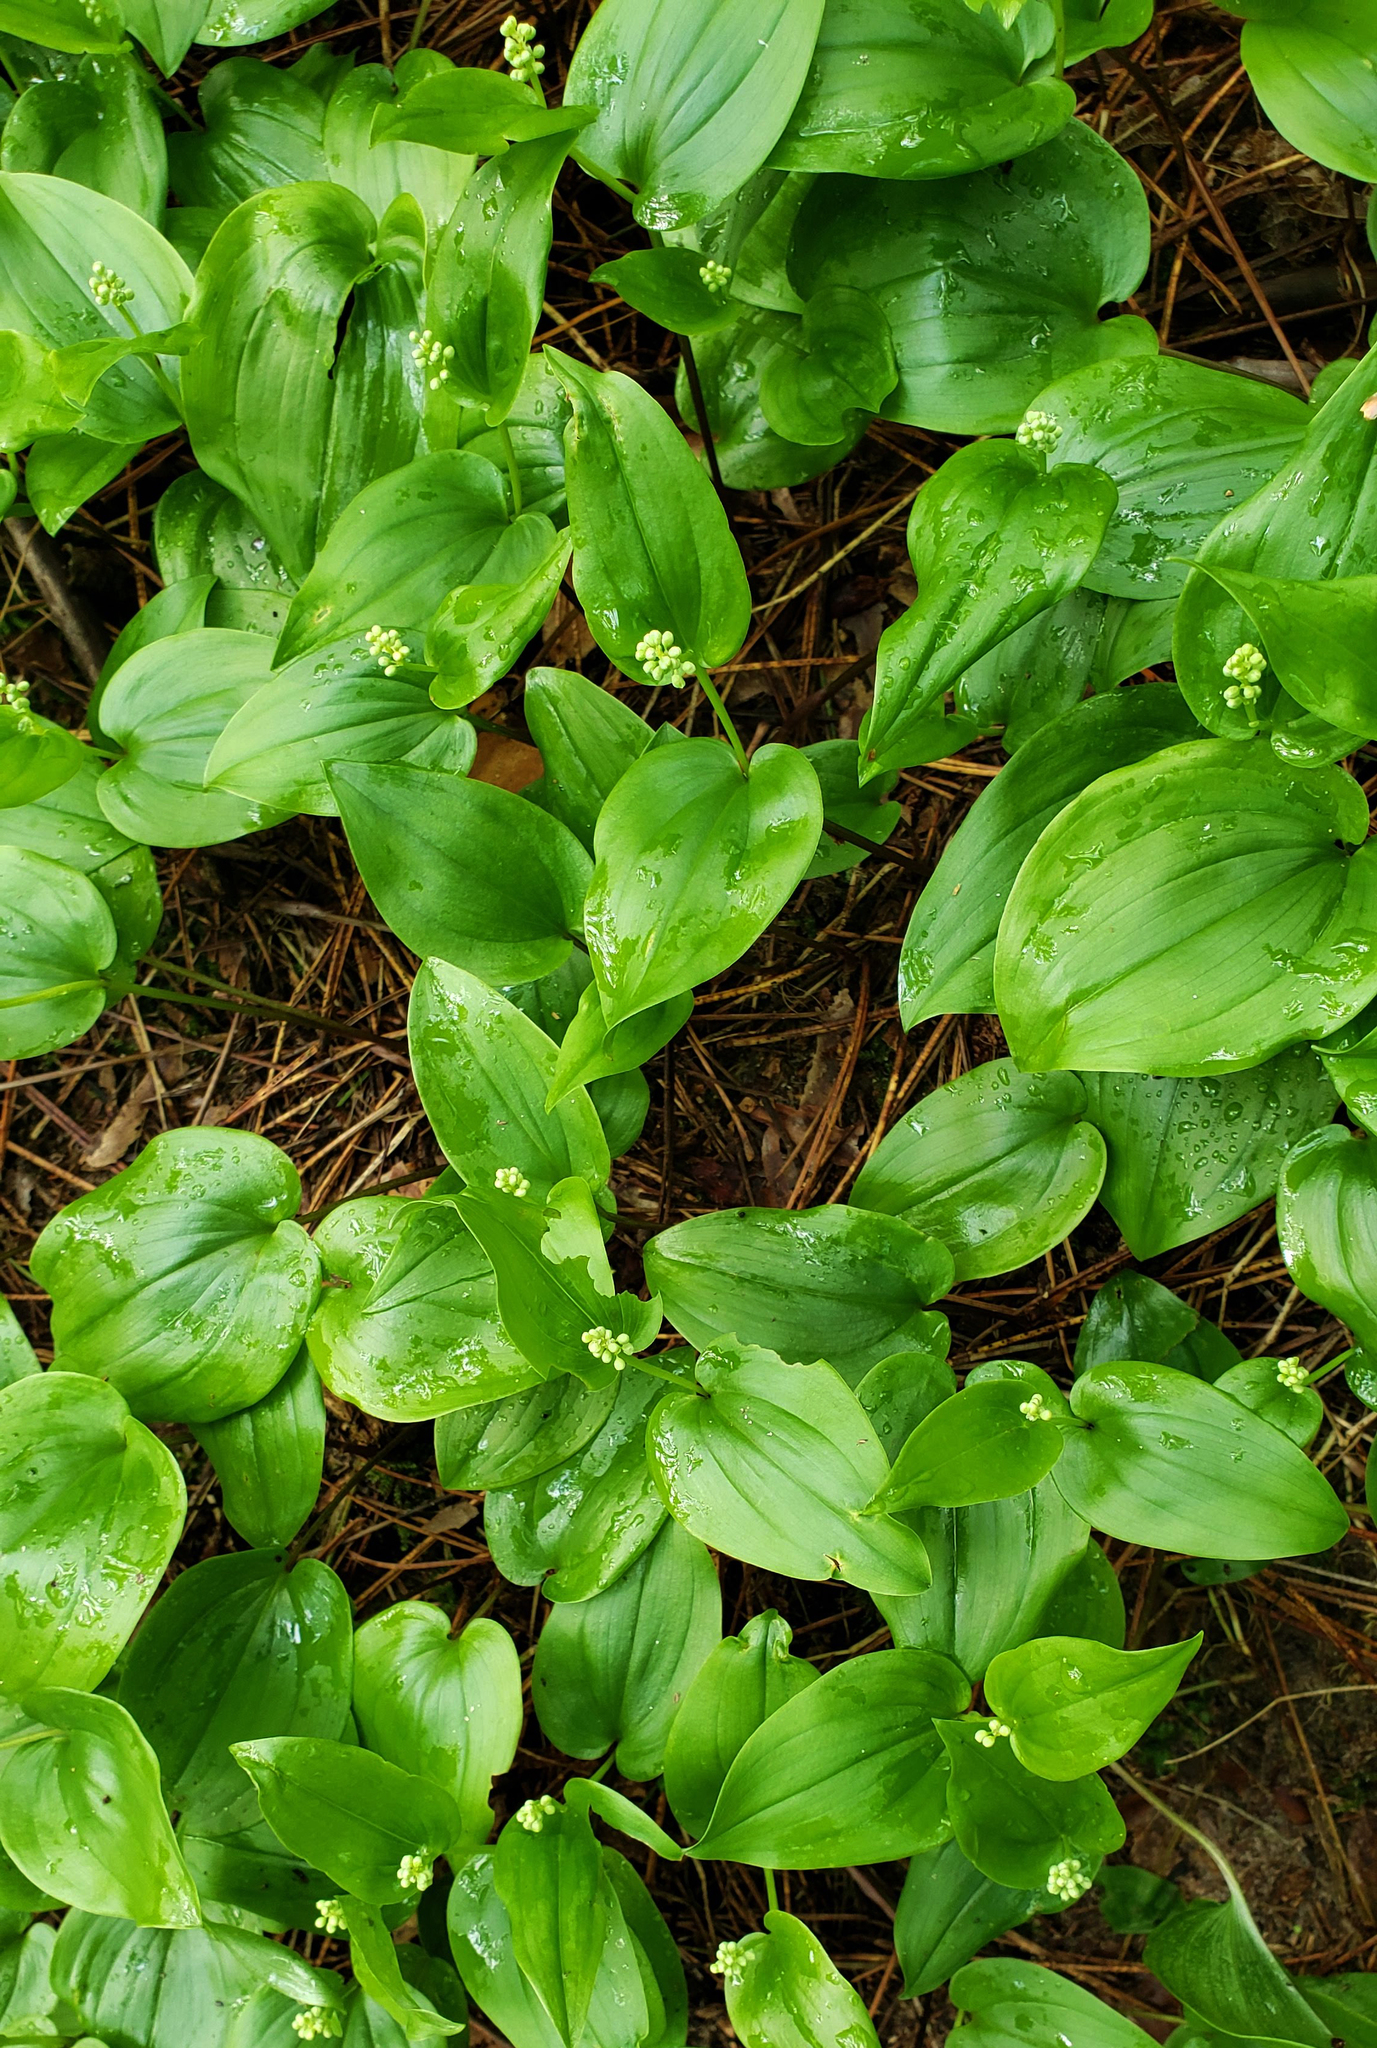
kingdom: Plantae
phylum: Tracheophyta
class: Liliopsida
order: Asparagales
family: Asparagaceae
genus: Maianthemum
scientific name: Maianthemum canadense
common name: False lily-of-the-valley
